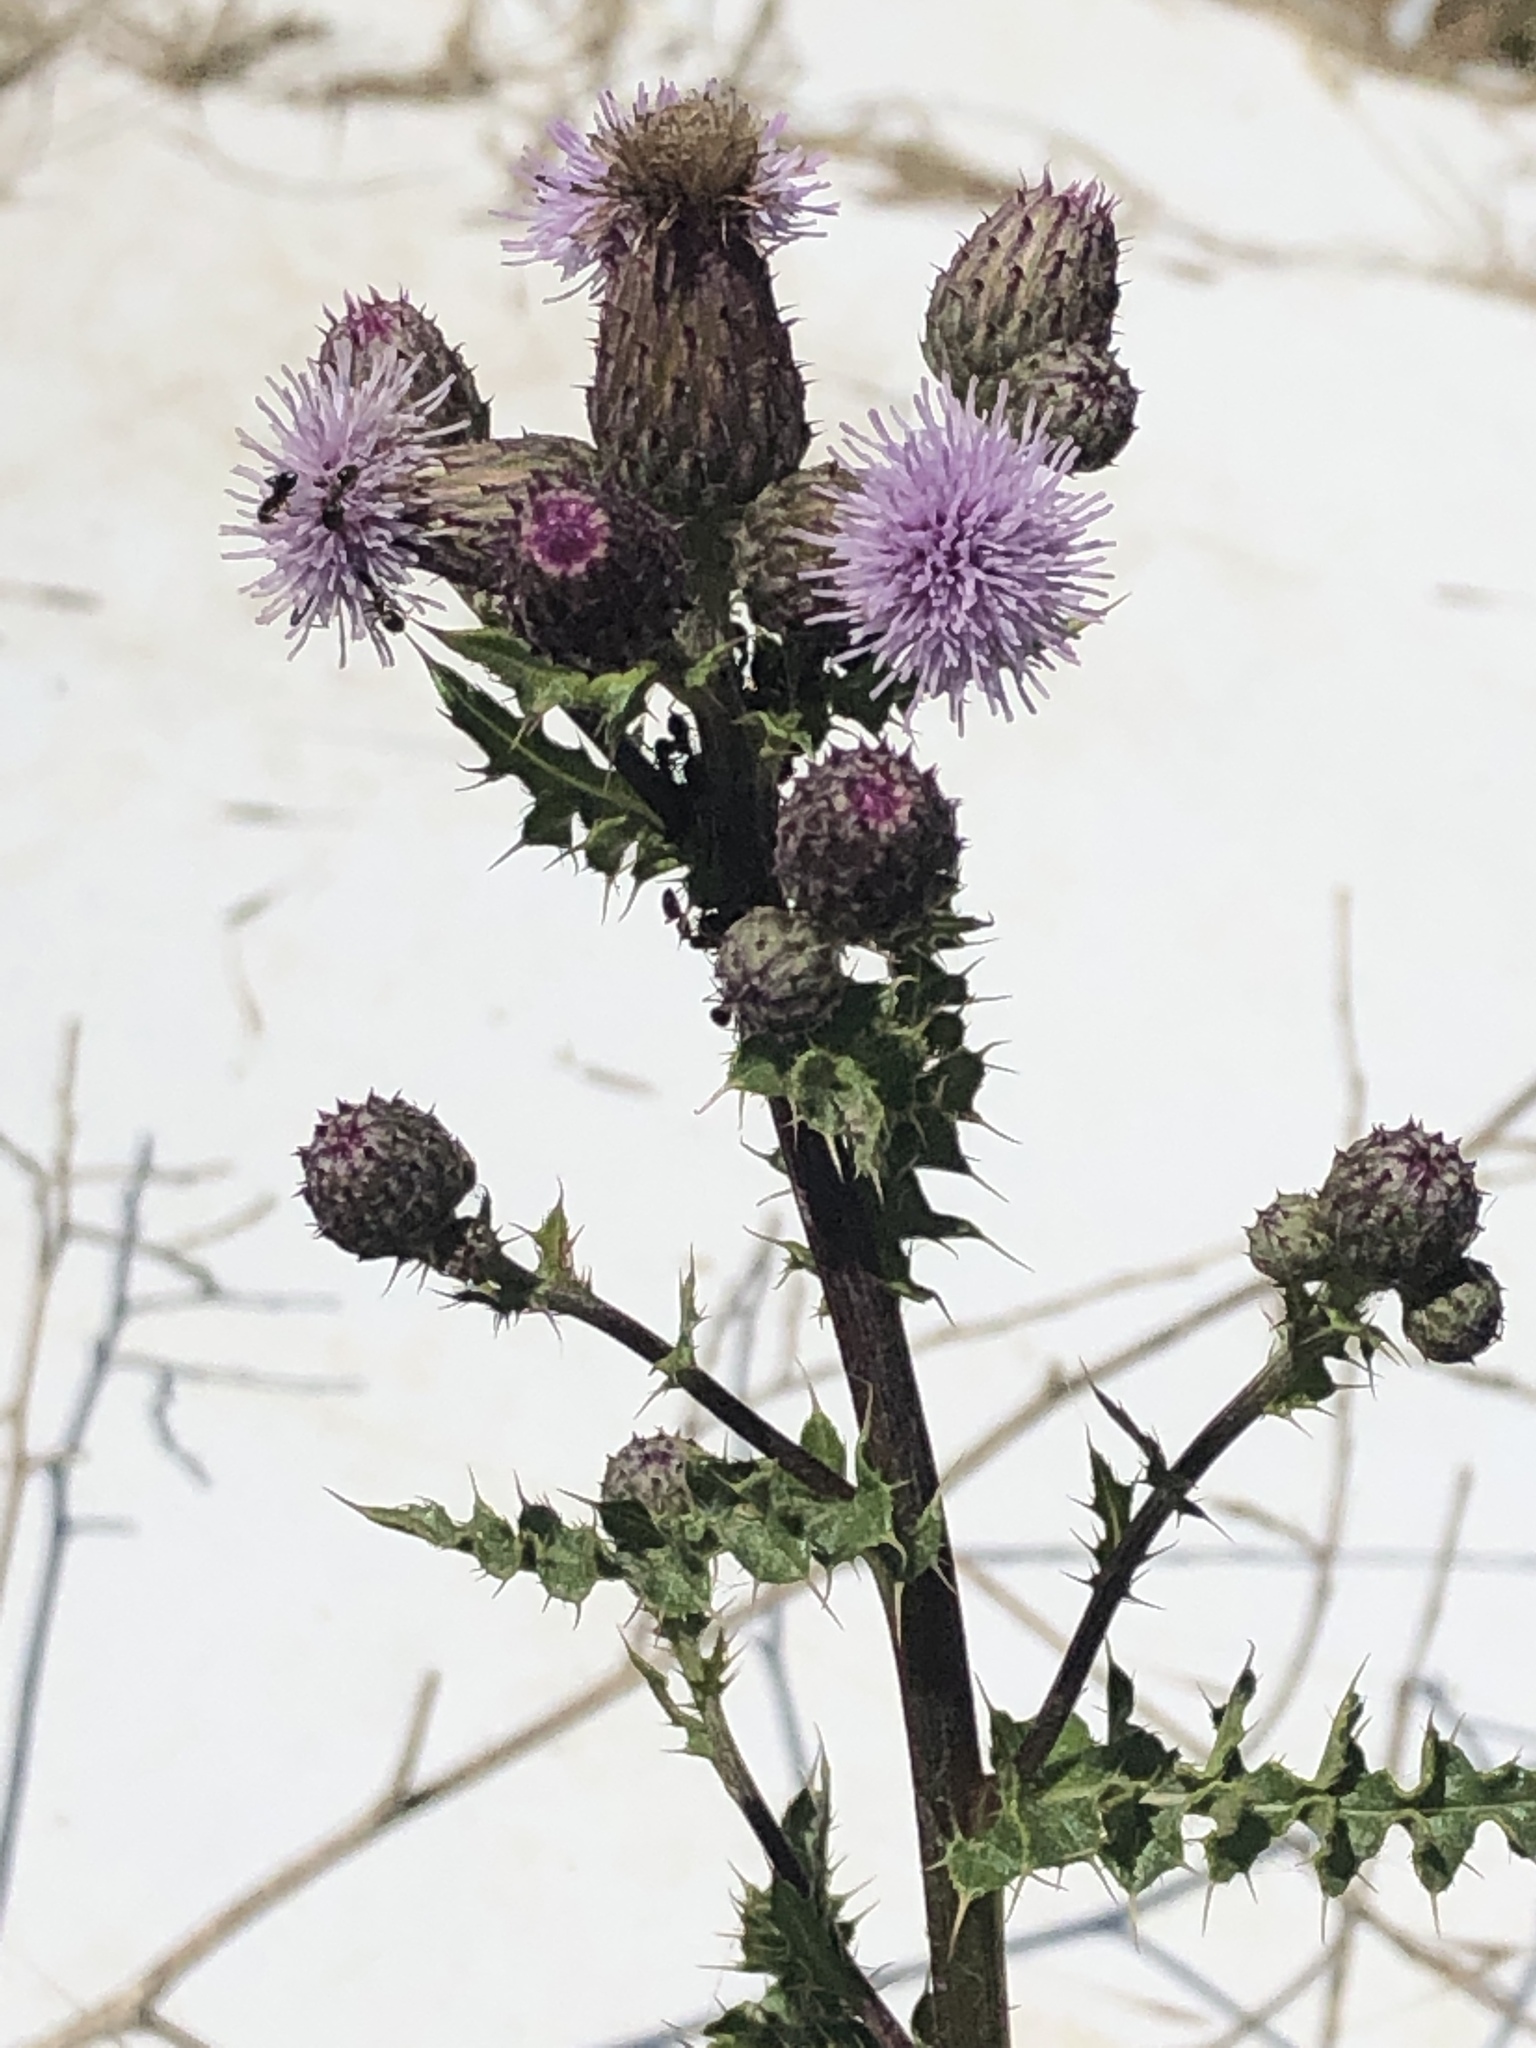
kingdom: Plantae
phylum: Tracheophyta
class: Magnoliopsida
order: Asterales
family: Asteraceae
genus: Cirsium
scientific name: Cirsium arvense
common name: Creeping thistle
